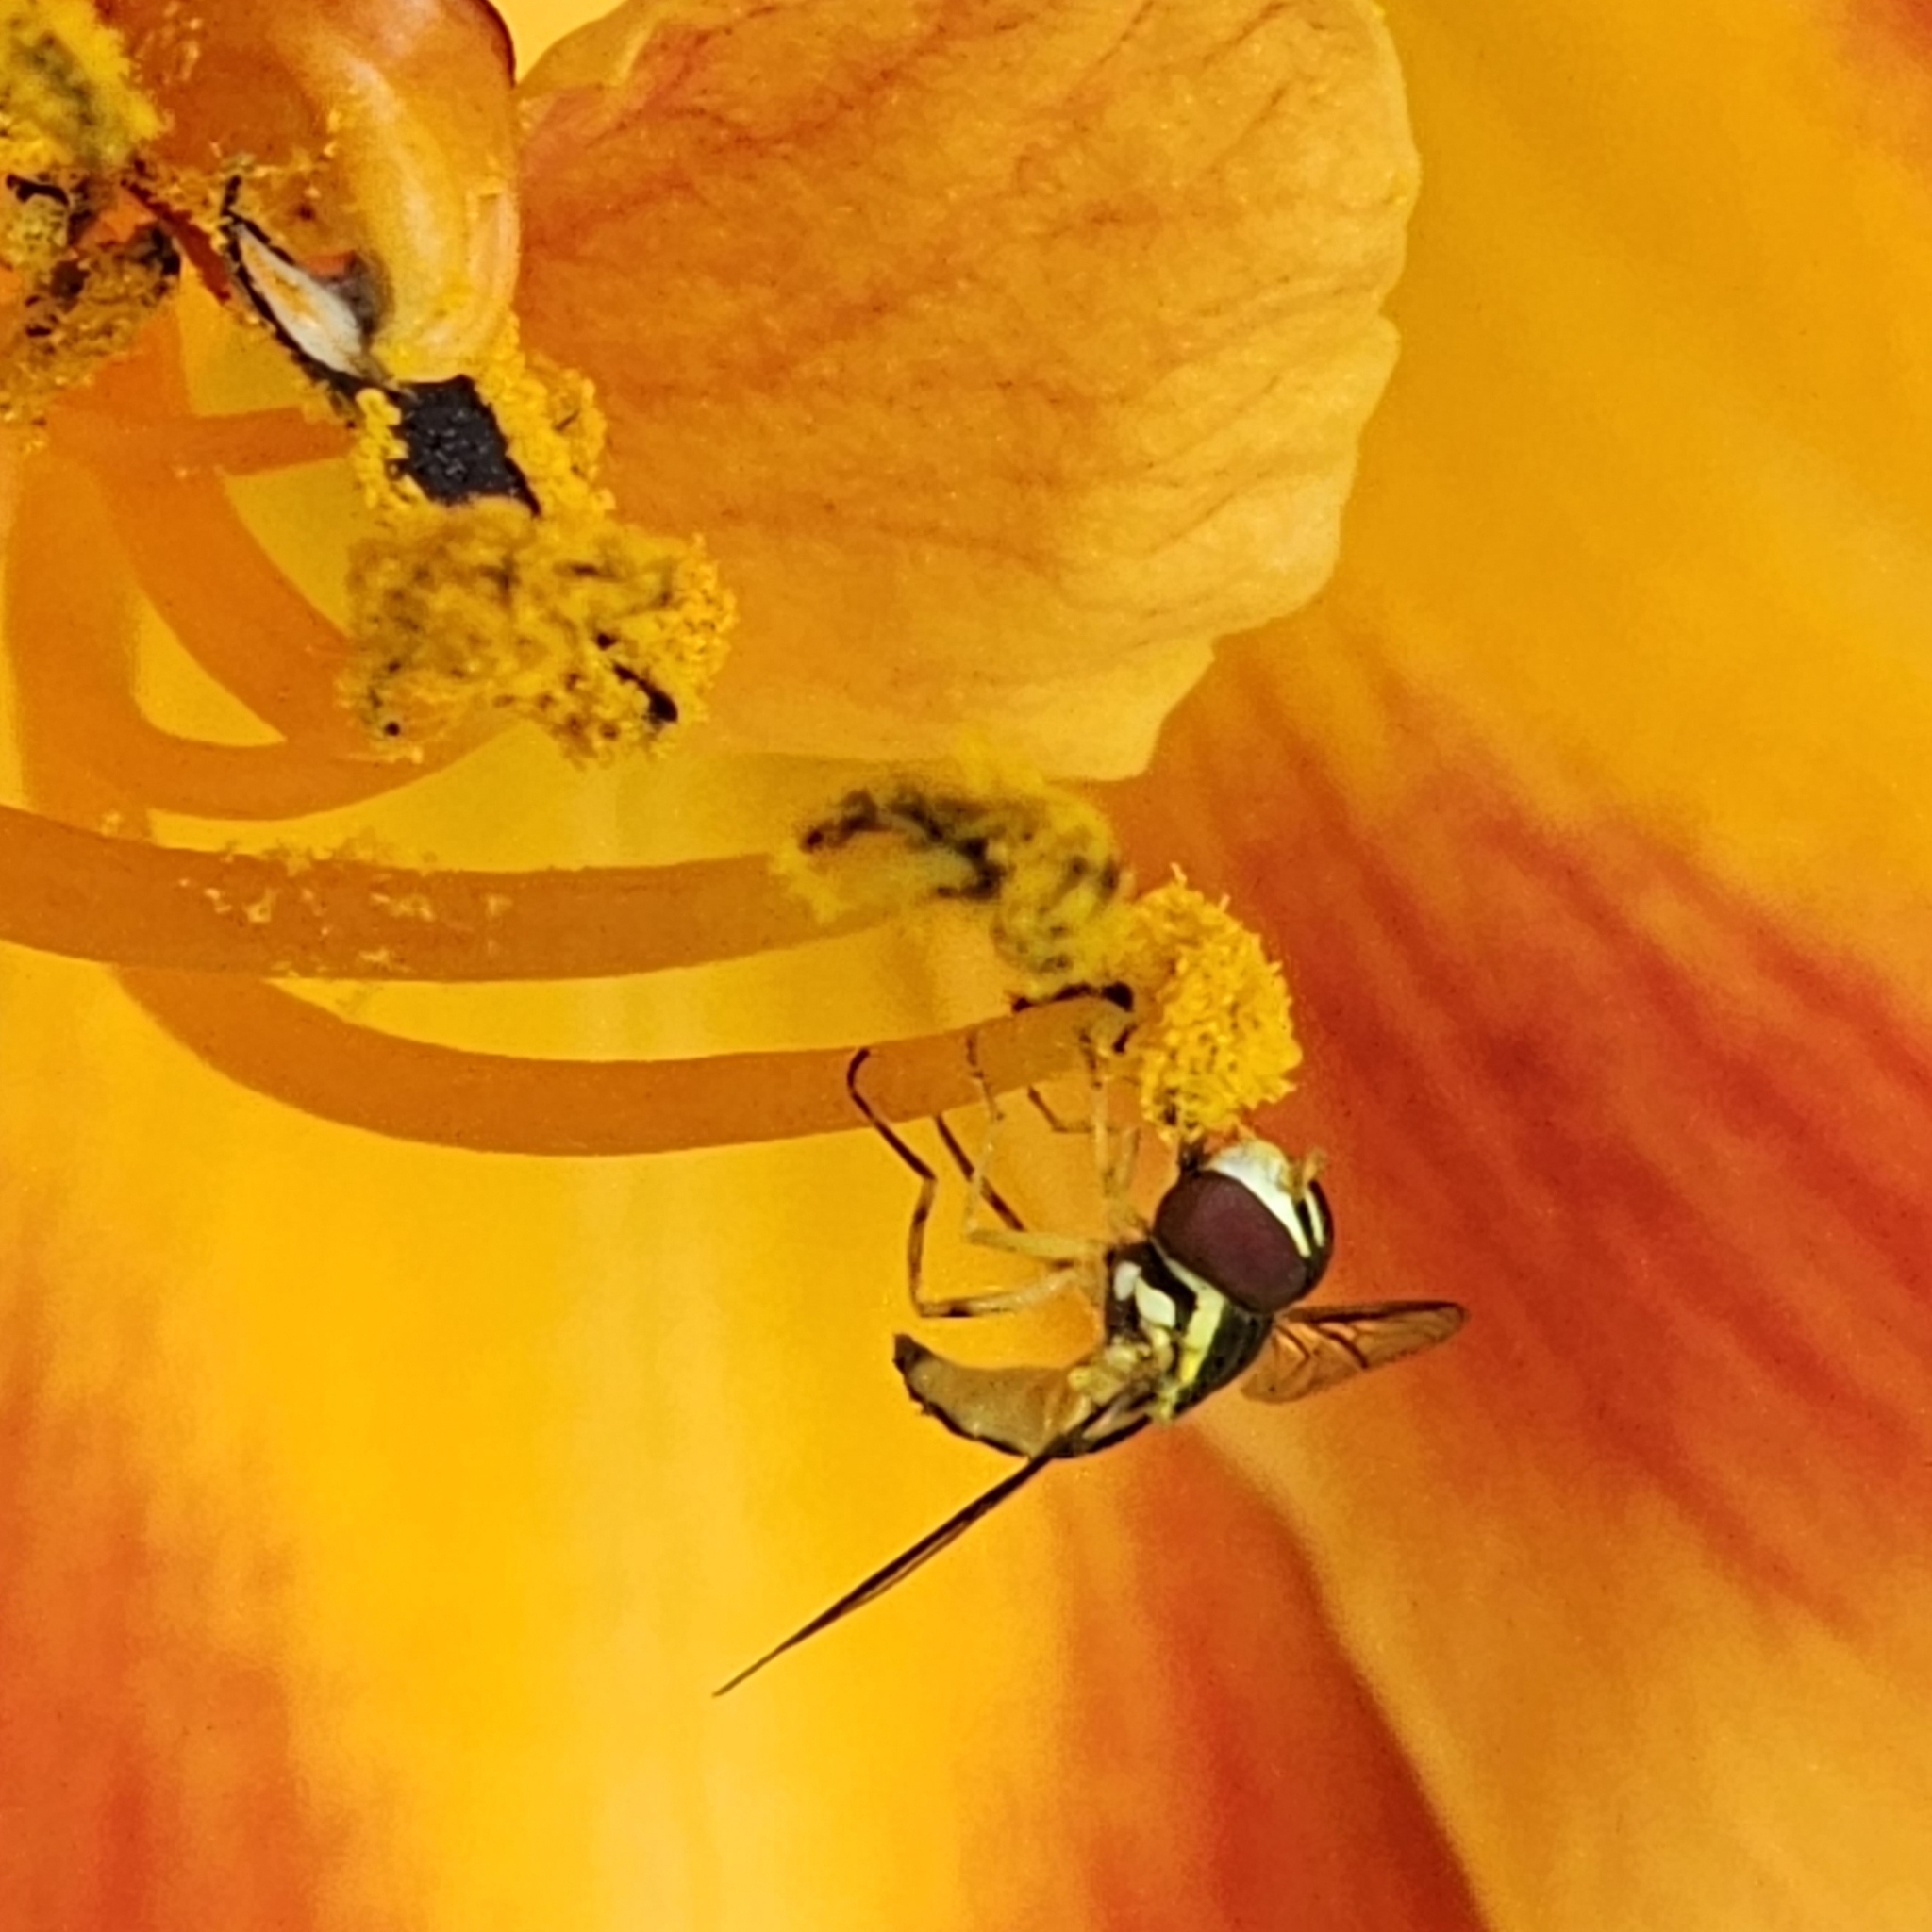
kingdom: Animalia
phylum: Arthropoda
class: Insecta
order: Diptera
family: Syrphidae
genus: Toxomerus
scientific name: Toxomerus geminatus
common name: Eastern calligrapher
